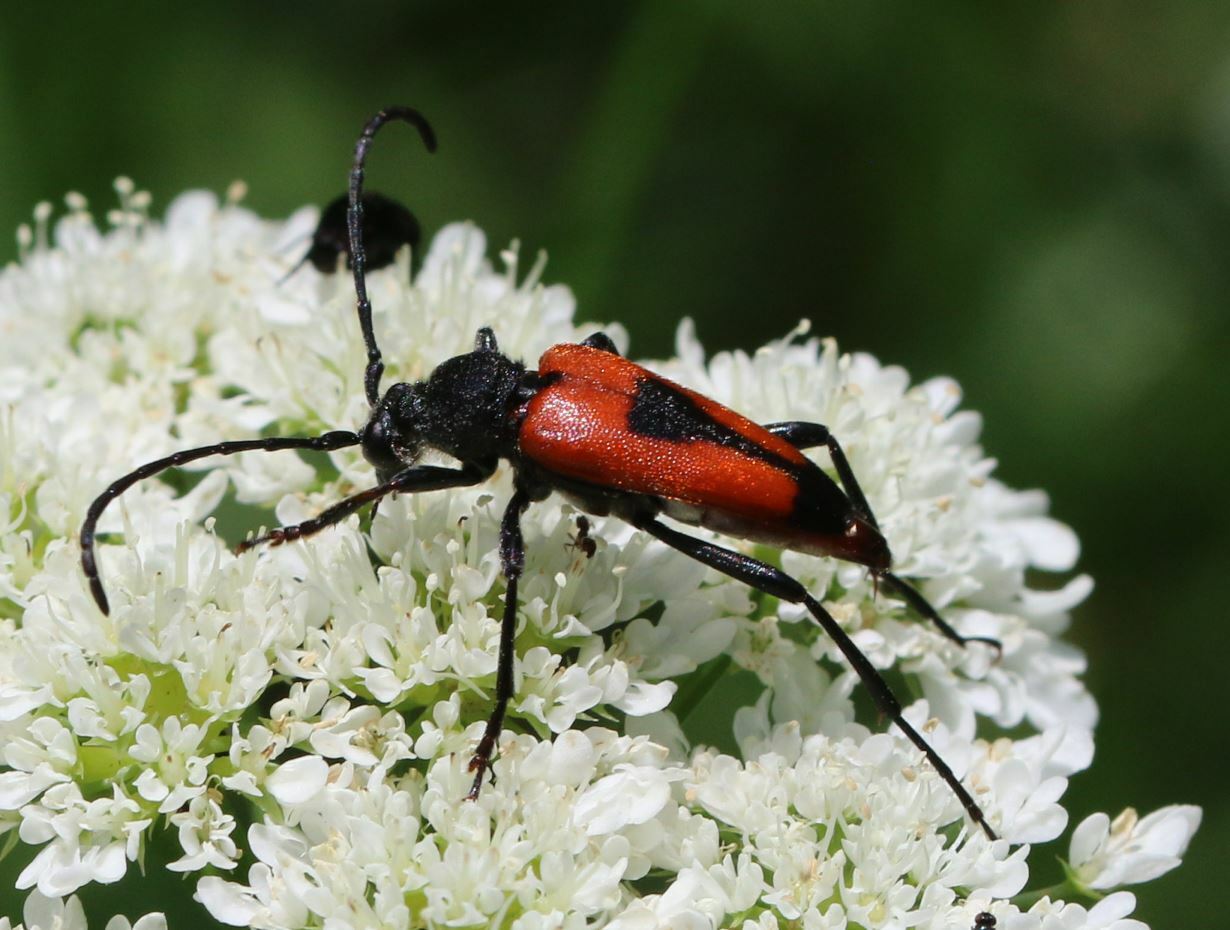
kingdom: Animalia
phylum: Arthropoda
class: Insecta
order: Coleoptera
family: Cerambycidae
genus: Stictoleptura
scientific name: Stictoleptura cordigera
